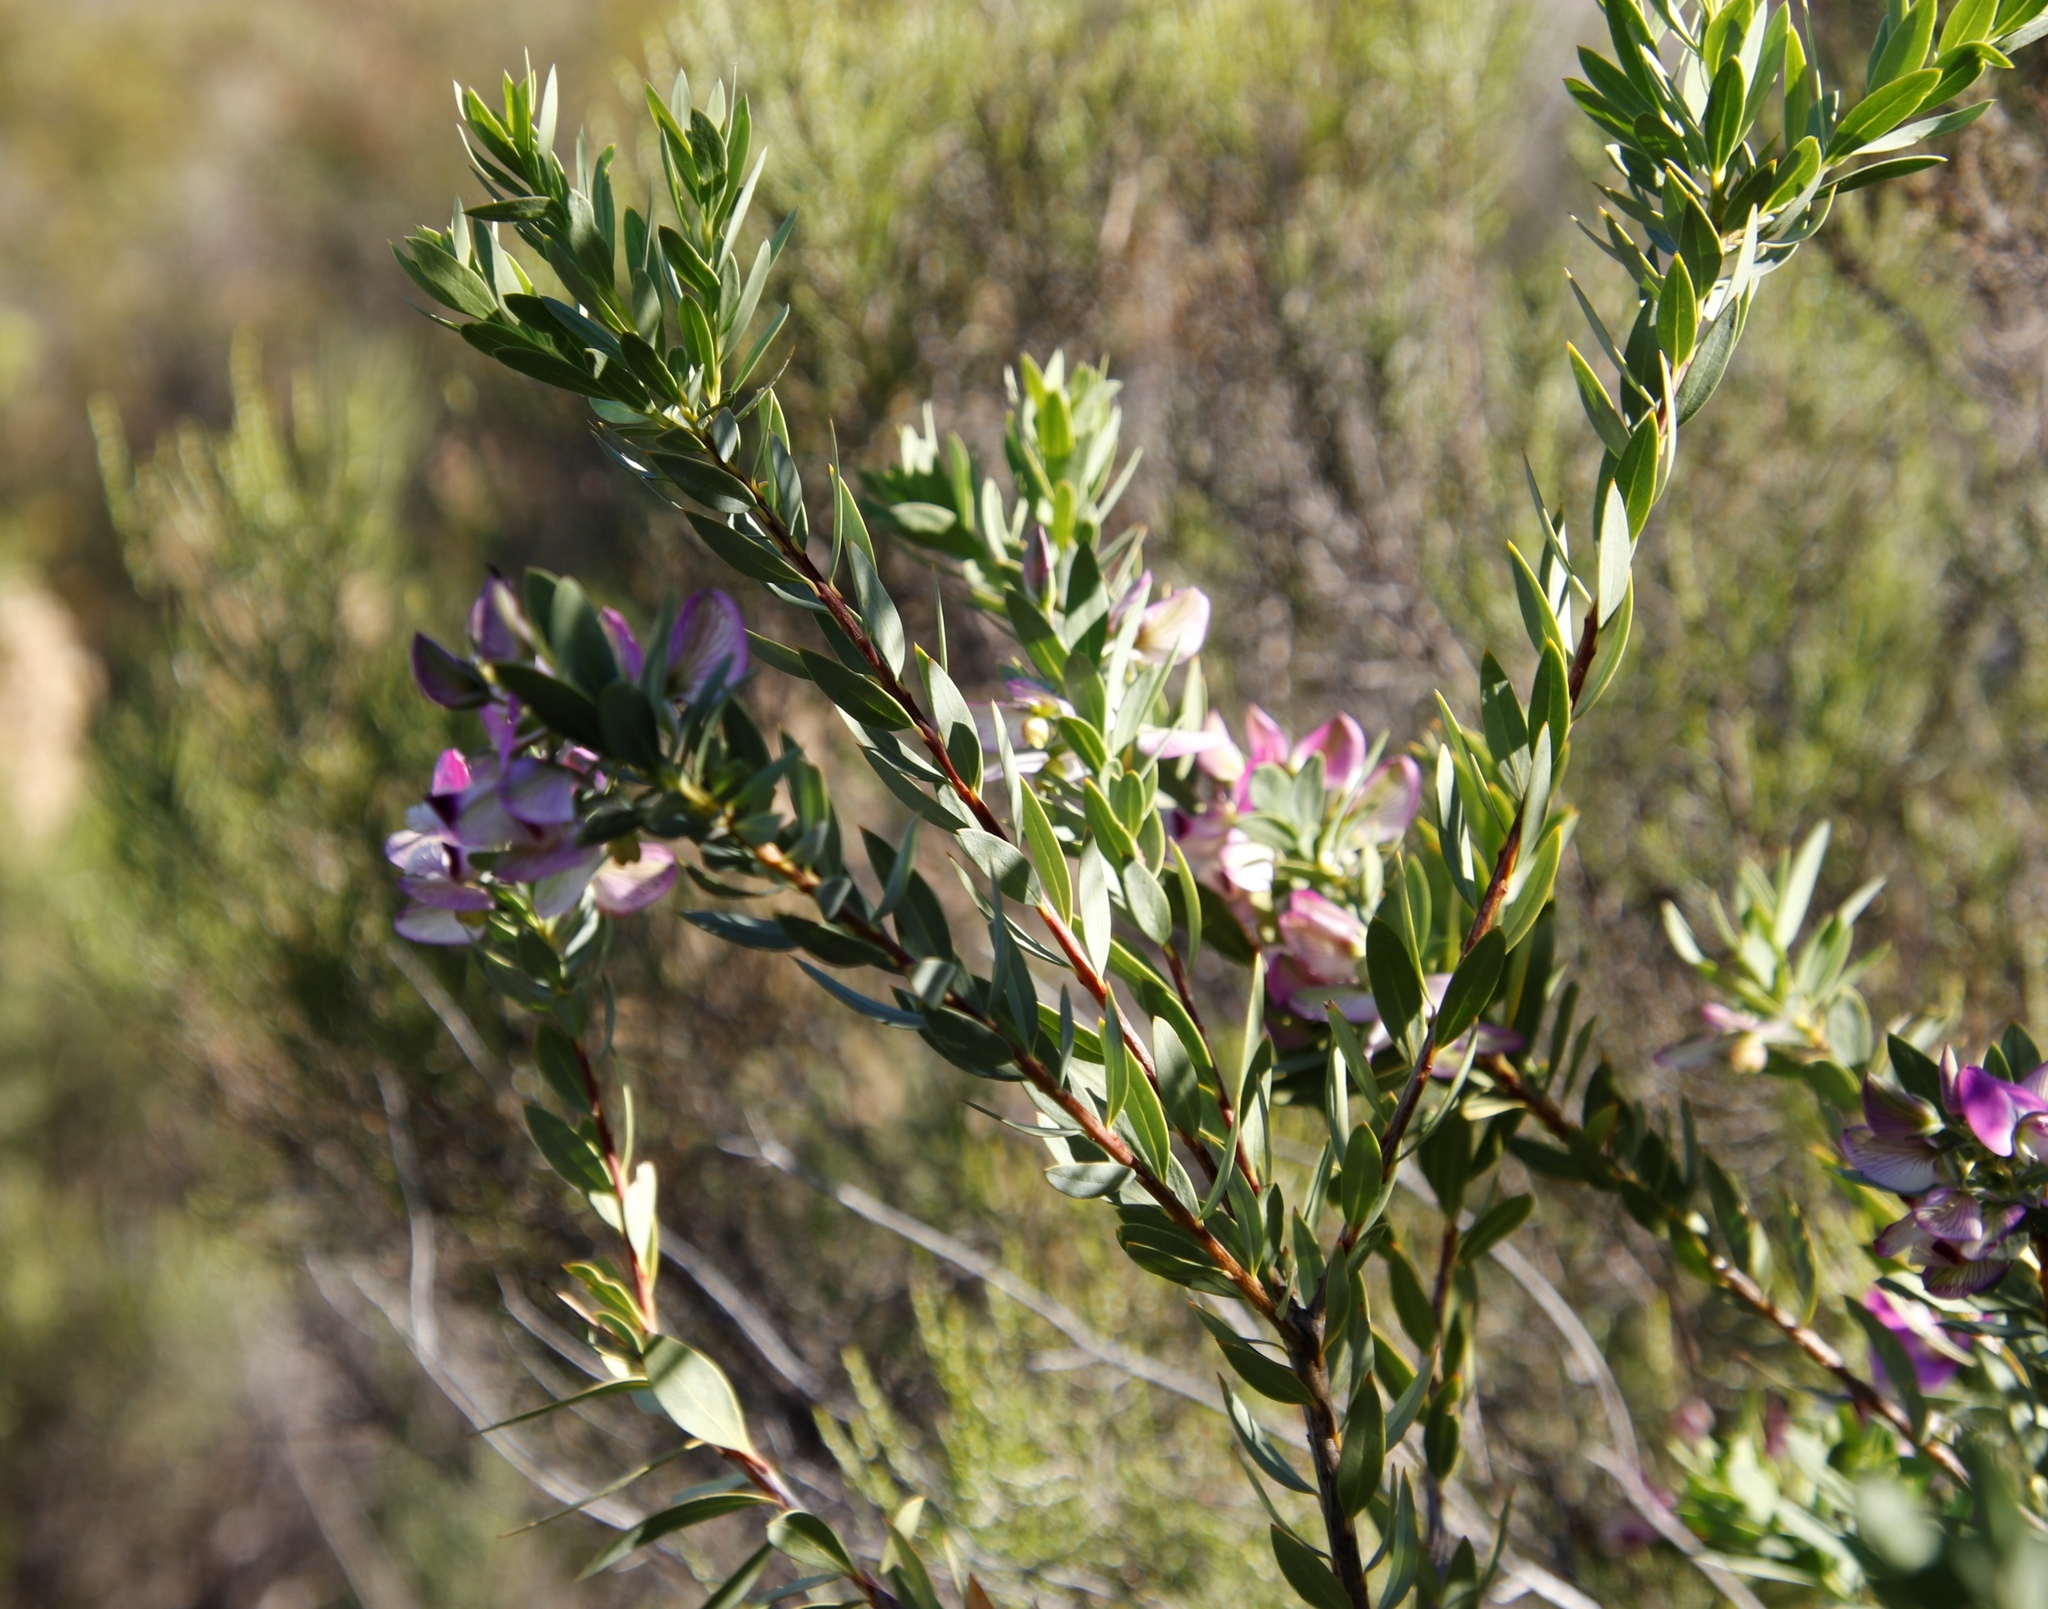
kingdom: Plantae
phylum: Tracheophyta
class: Magnoliopsida
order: Fabales
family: Polygalaceae
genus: Polygala
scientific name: Polygala myrtifolia
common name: Myrtle-leaf milkwort
